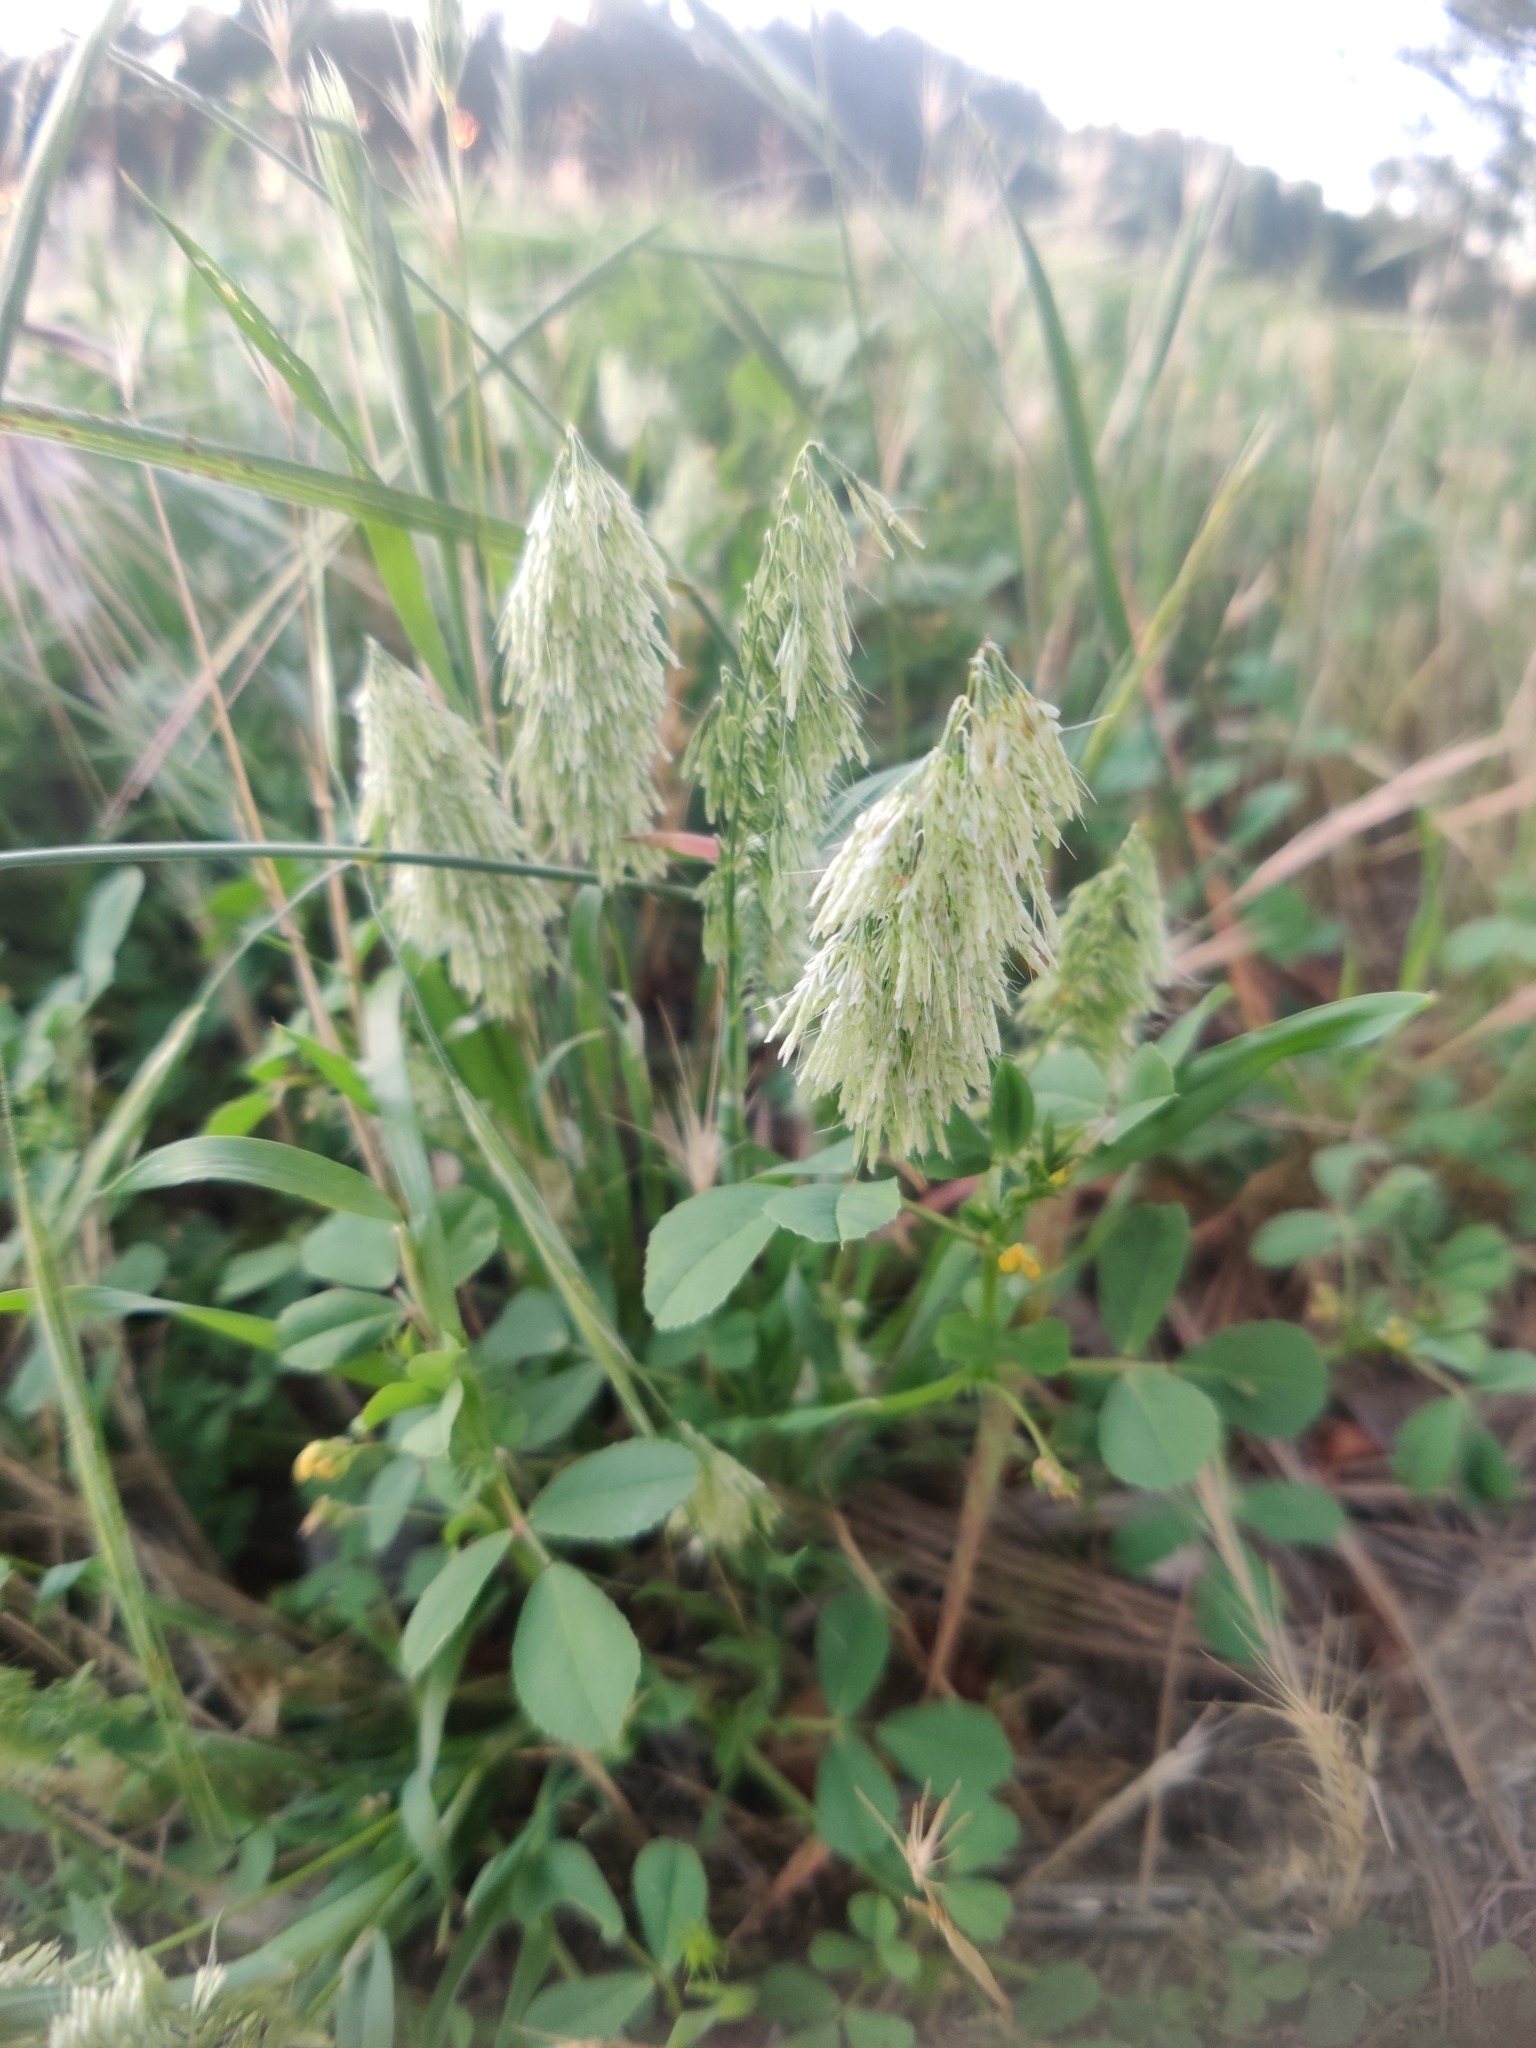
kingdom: Plantae
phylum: Tracheophyta
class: Liliopsida
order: Poales
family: Poaceae
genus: Lamarckia
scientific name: Lamarckia aurea
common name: Golden dog's-tail
